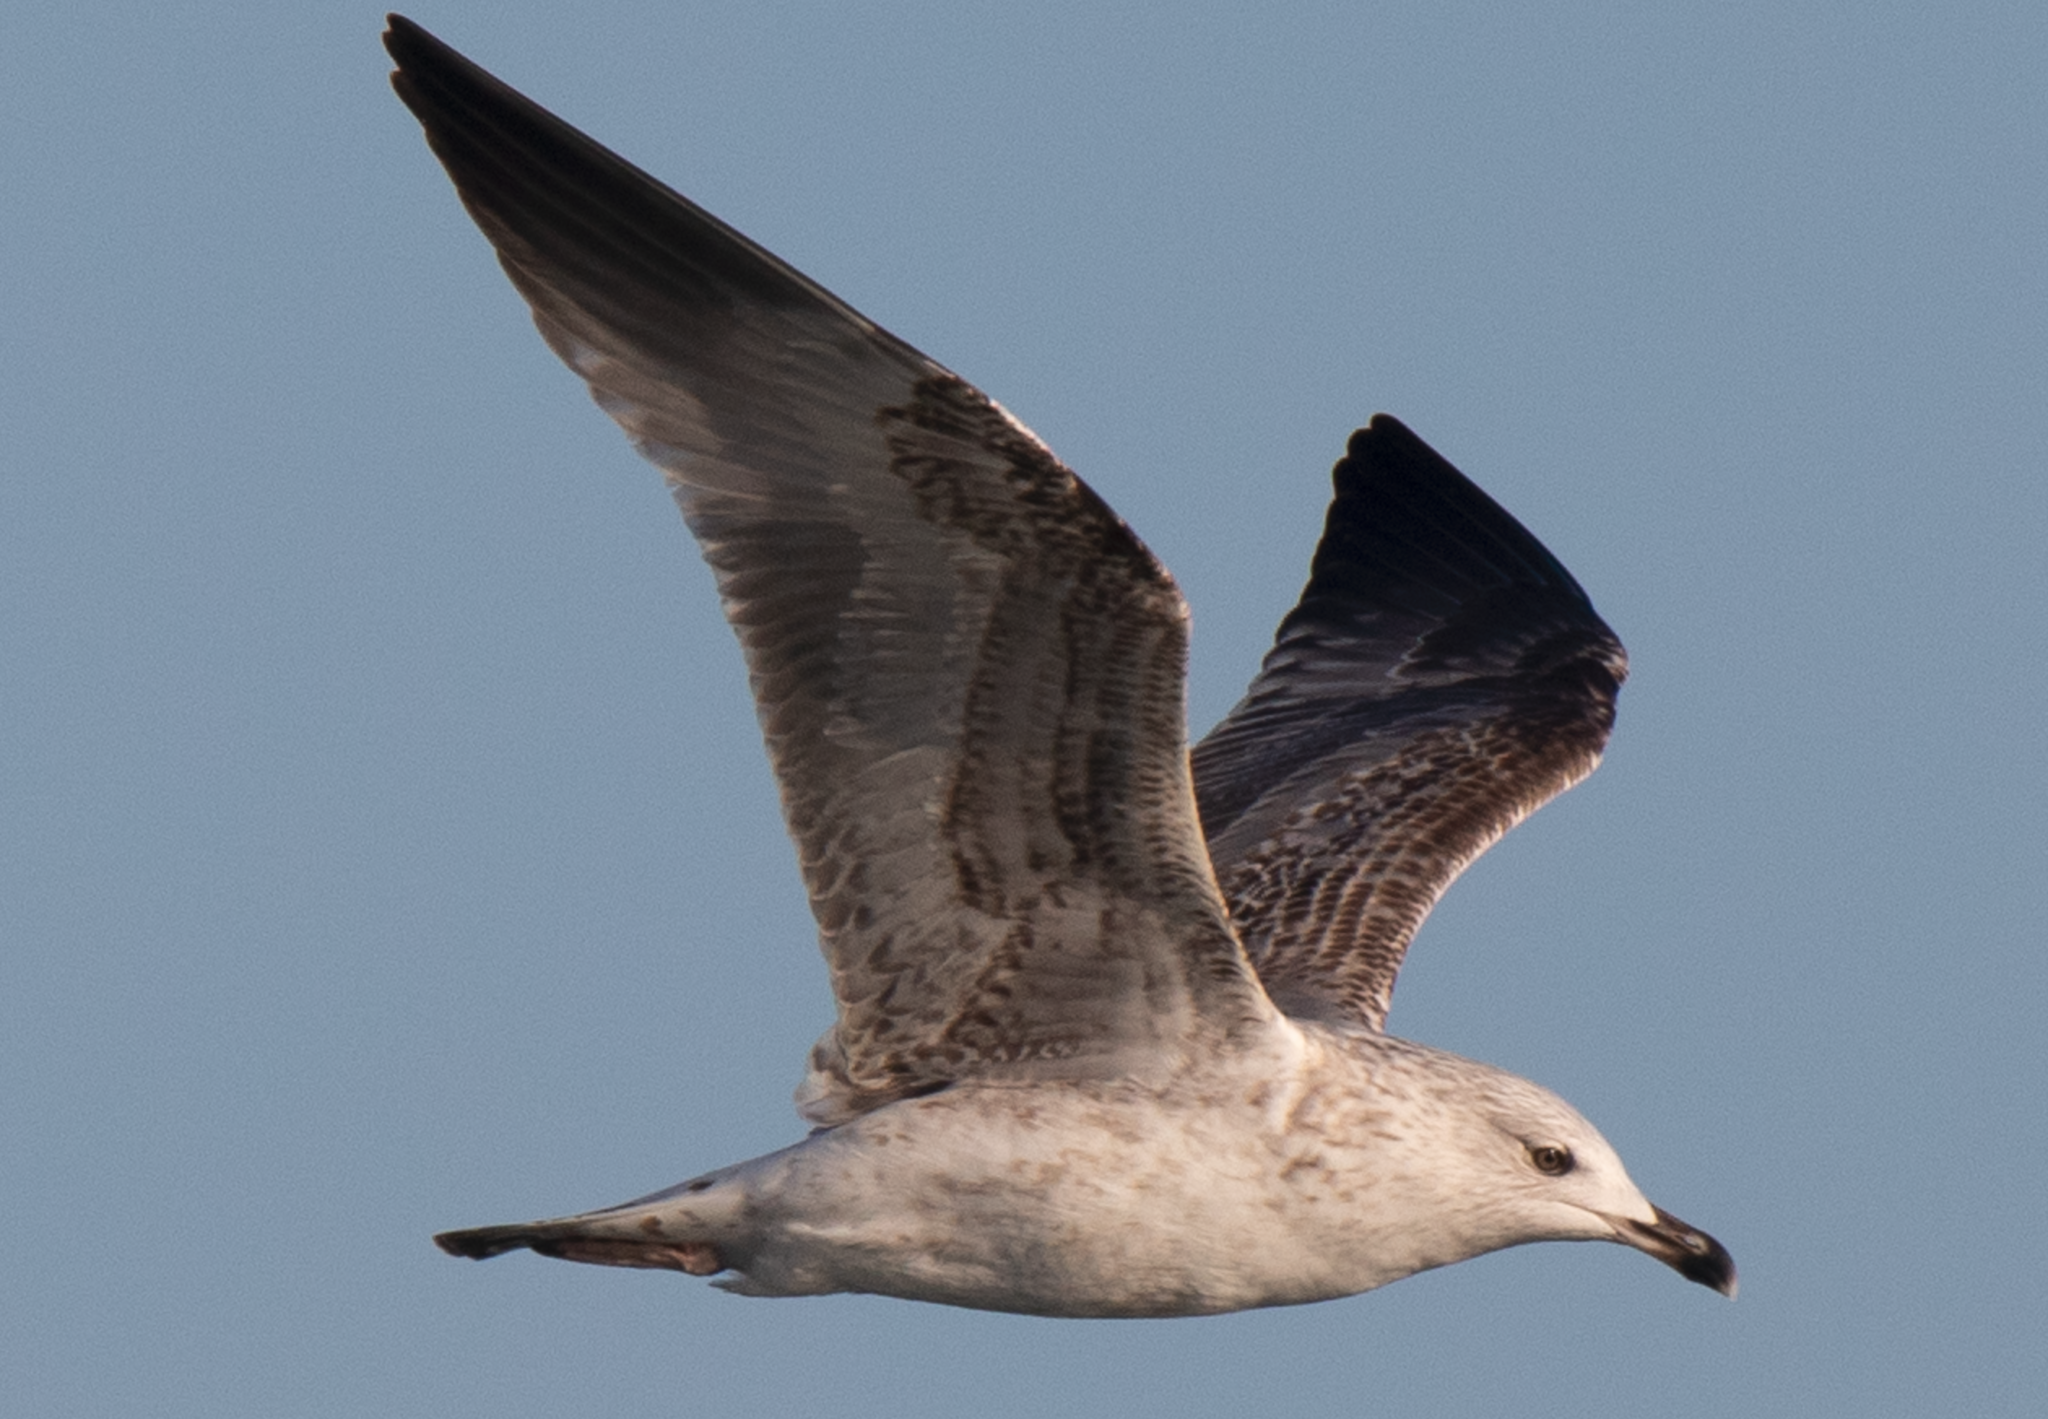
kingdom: Animalia
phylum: Chordata
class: Aves
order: Charadriiformes
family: Laridae
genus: Larus
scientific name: Larus michahellis
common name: Yellow-legged gull
